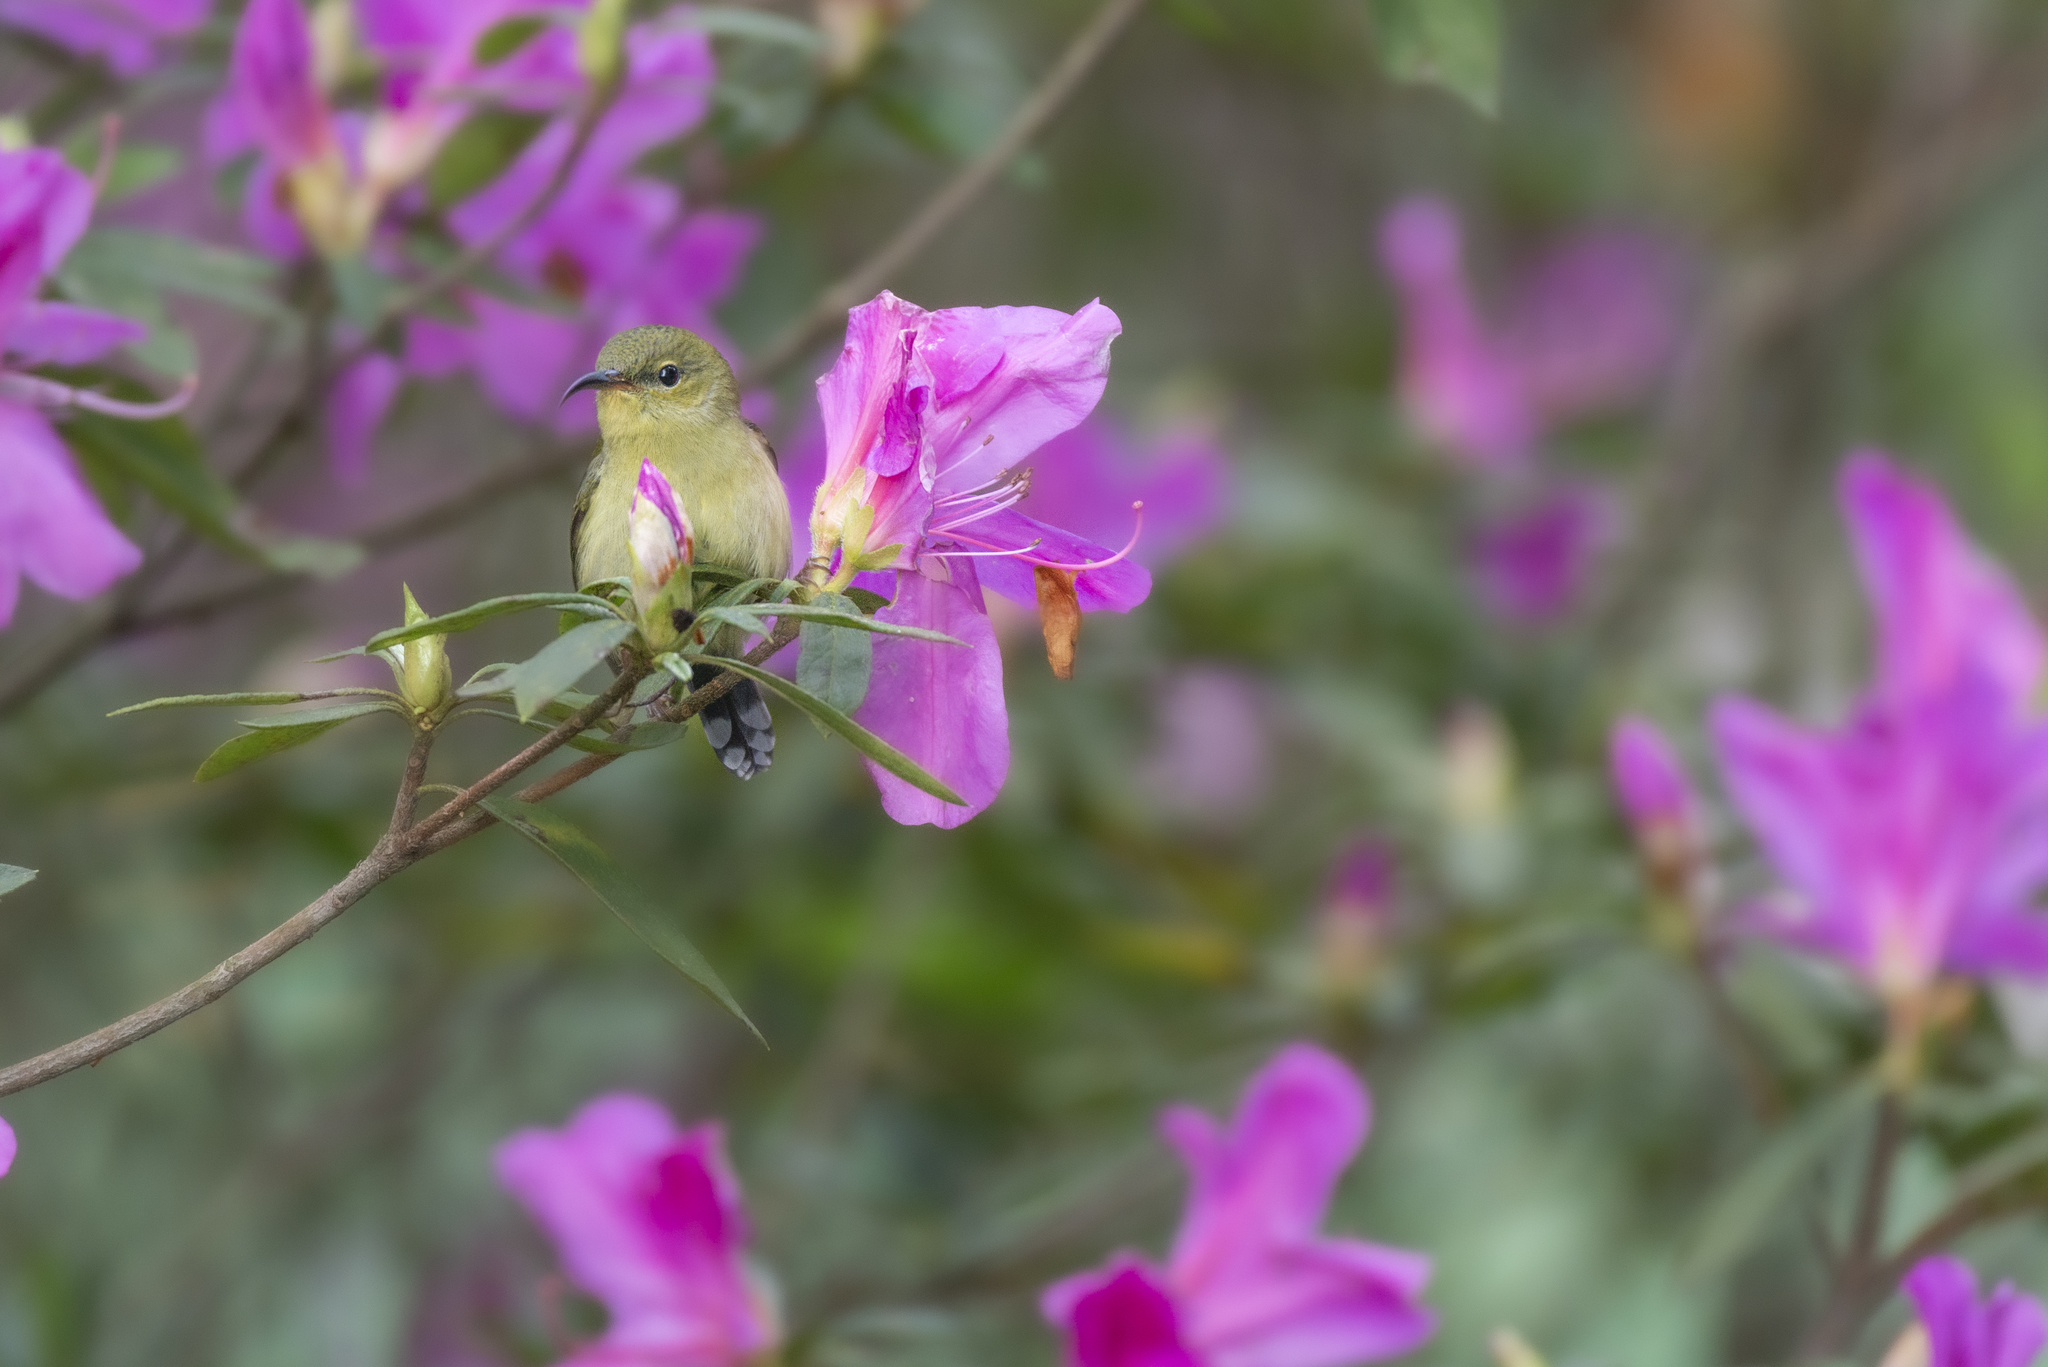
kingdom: Animalia
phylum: Chordata
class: Aves
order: Passeriformes
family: Nectariniidae
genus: Aethopyga
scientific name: Aethopyga christinae
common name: Fork-tailed sunbird
